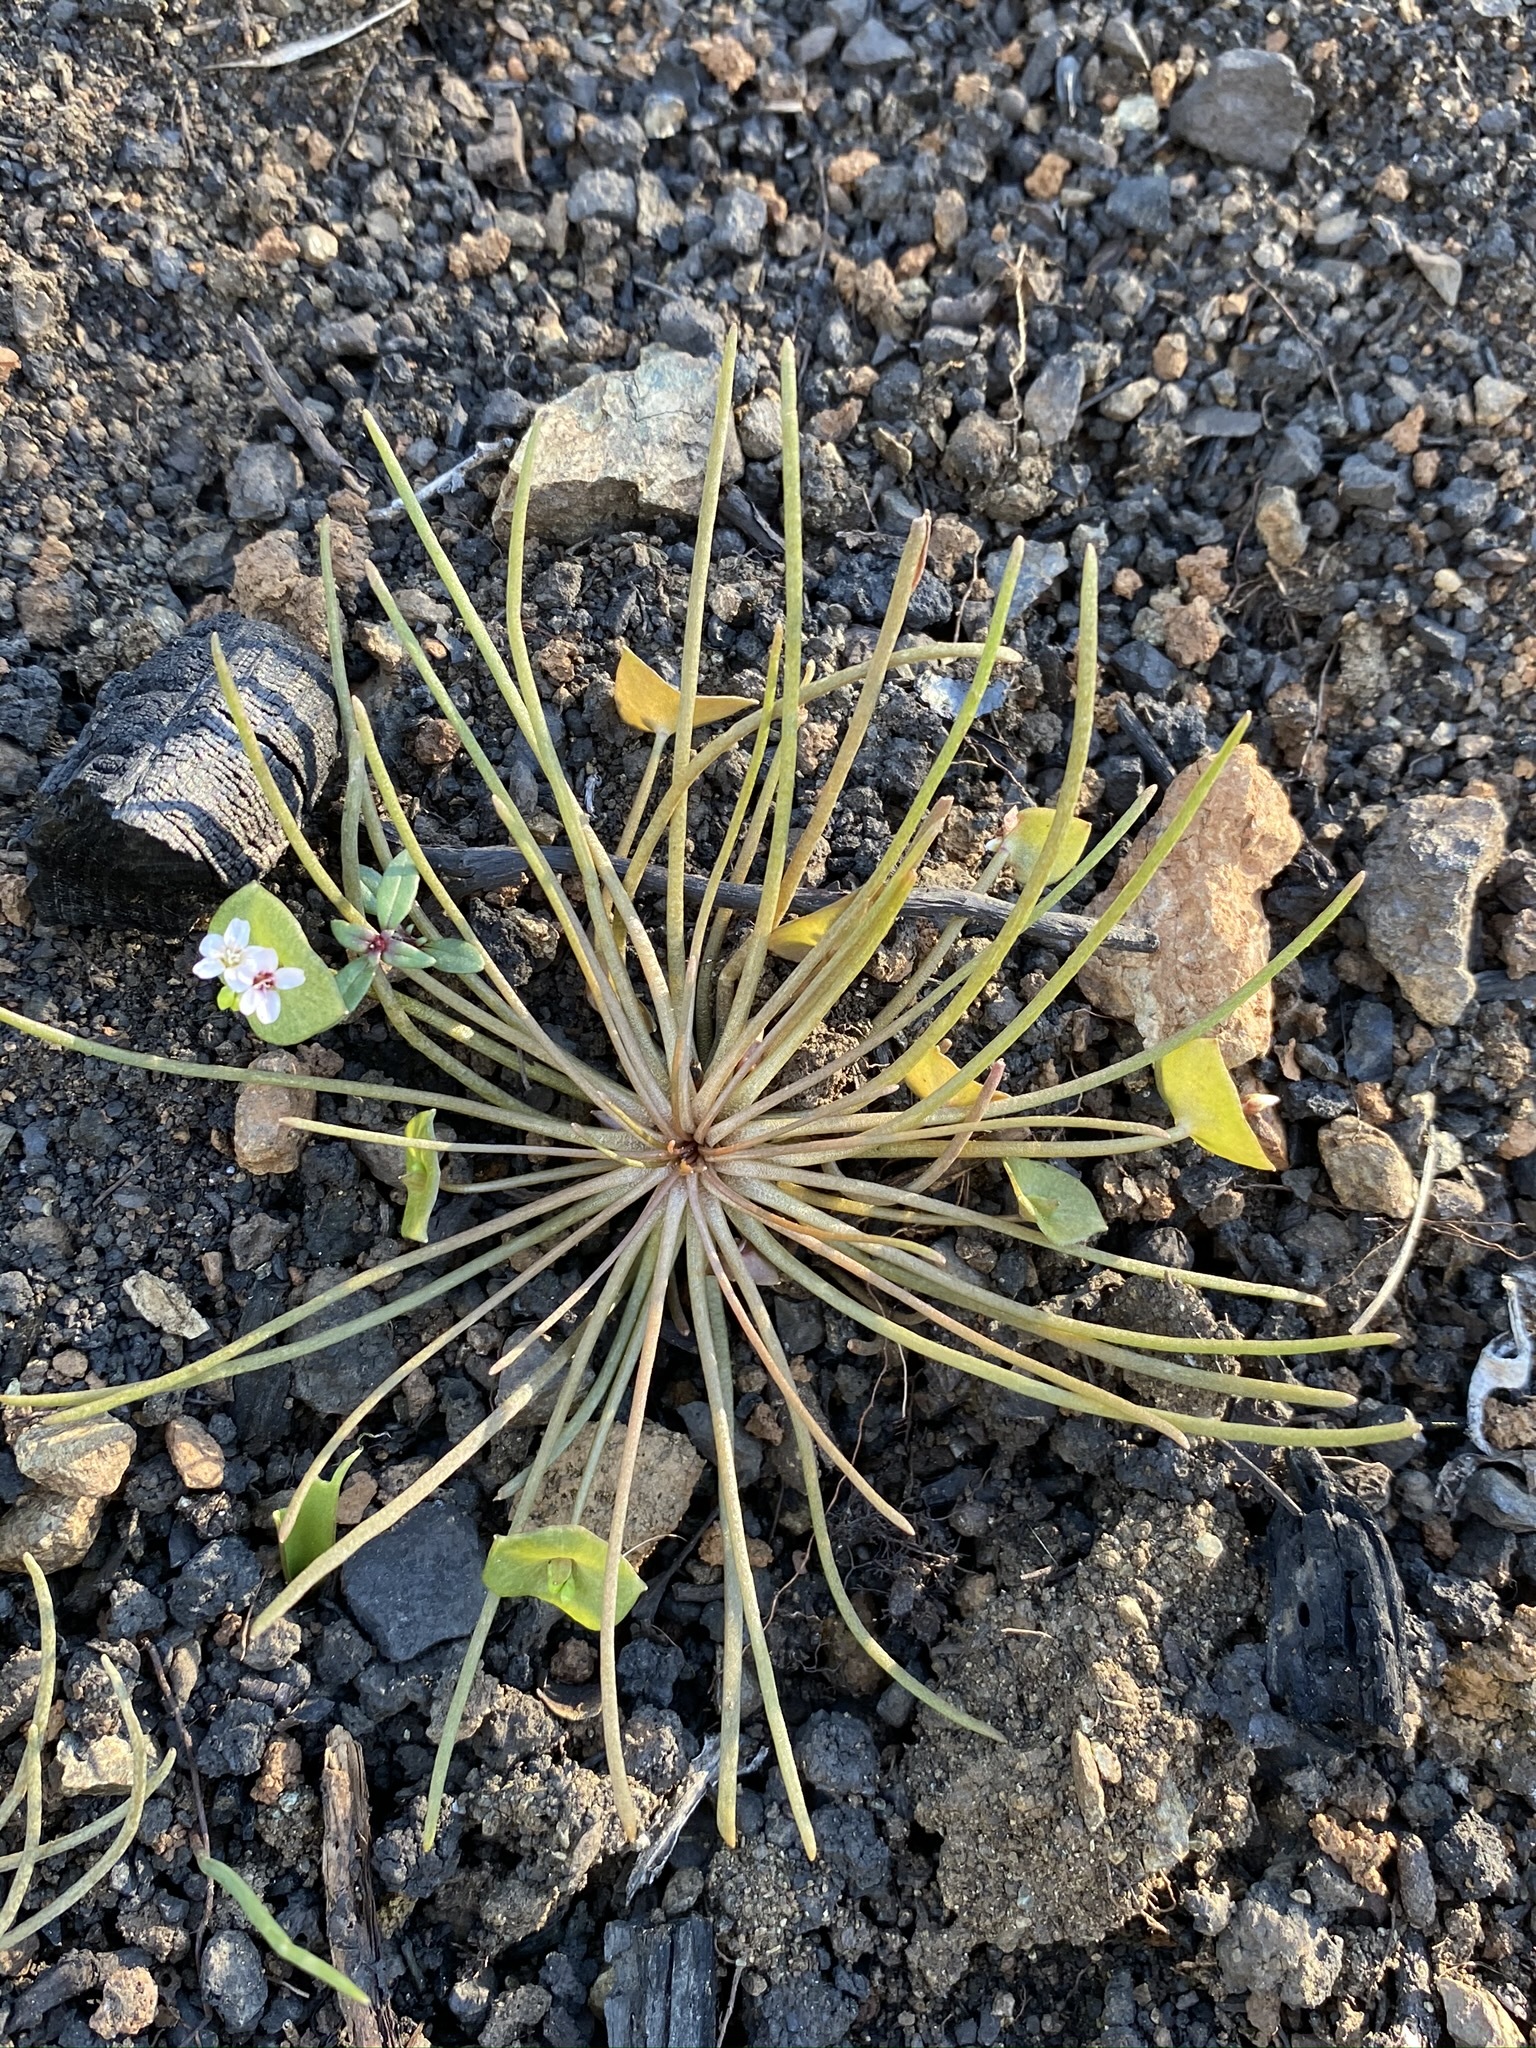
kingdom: Plantae
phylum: Tracheophyta
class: Magnoliopsida
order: Caryophyllales
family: Montiaceae
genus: Claytonia
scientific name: Claytonia parviflora
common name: Indian-lettuce
